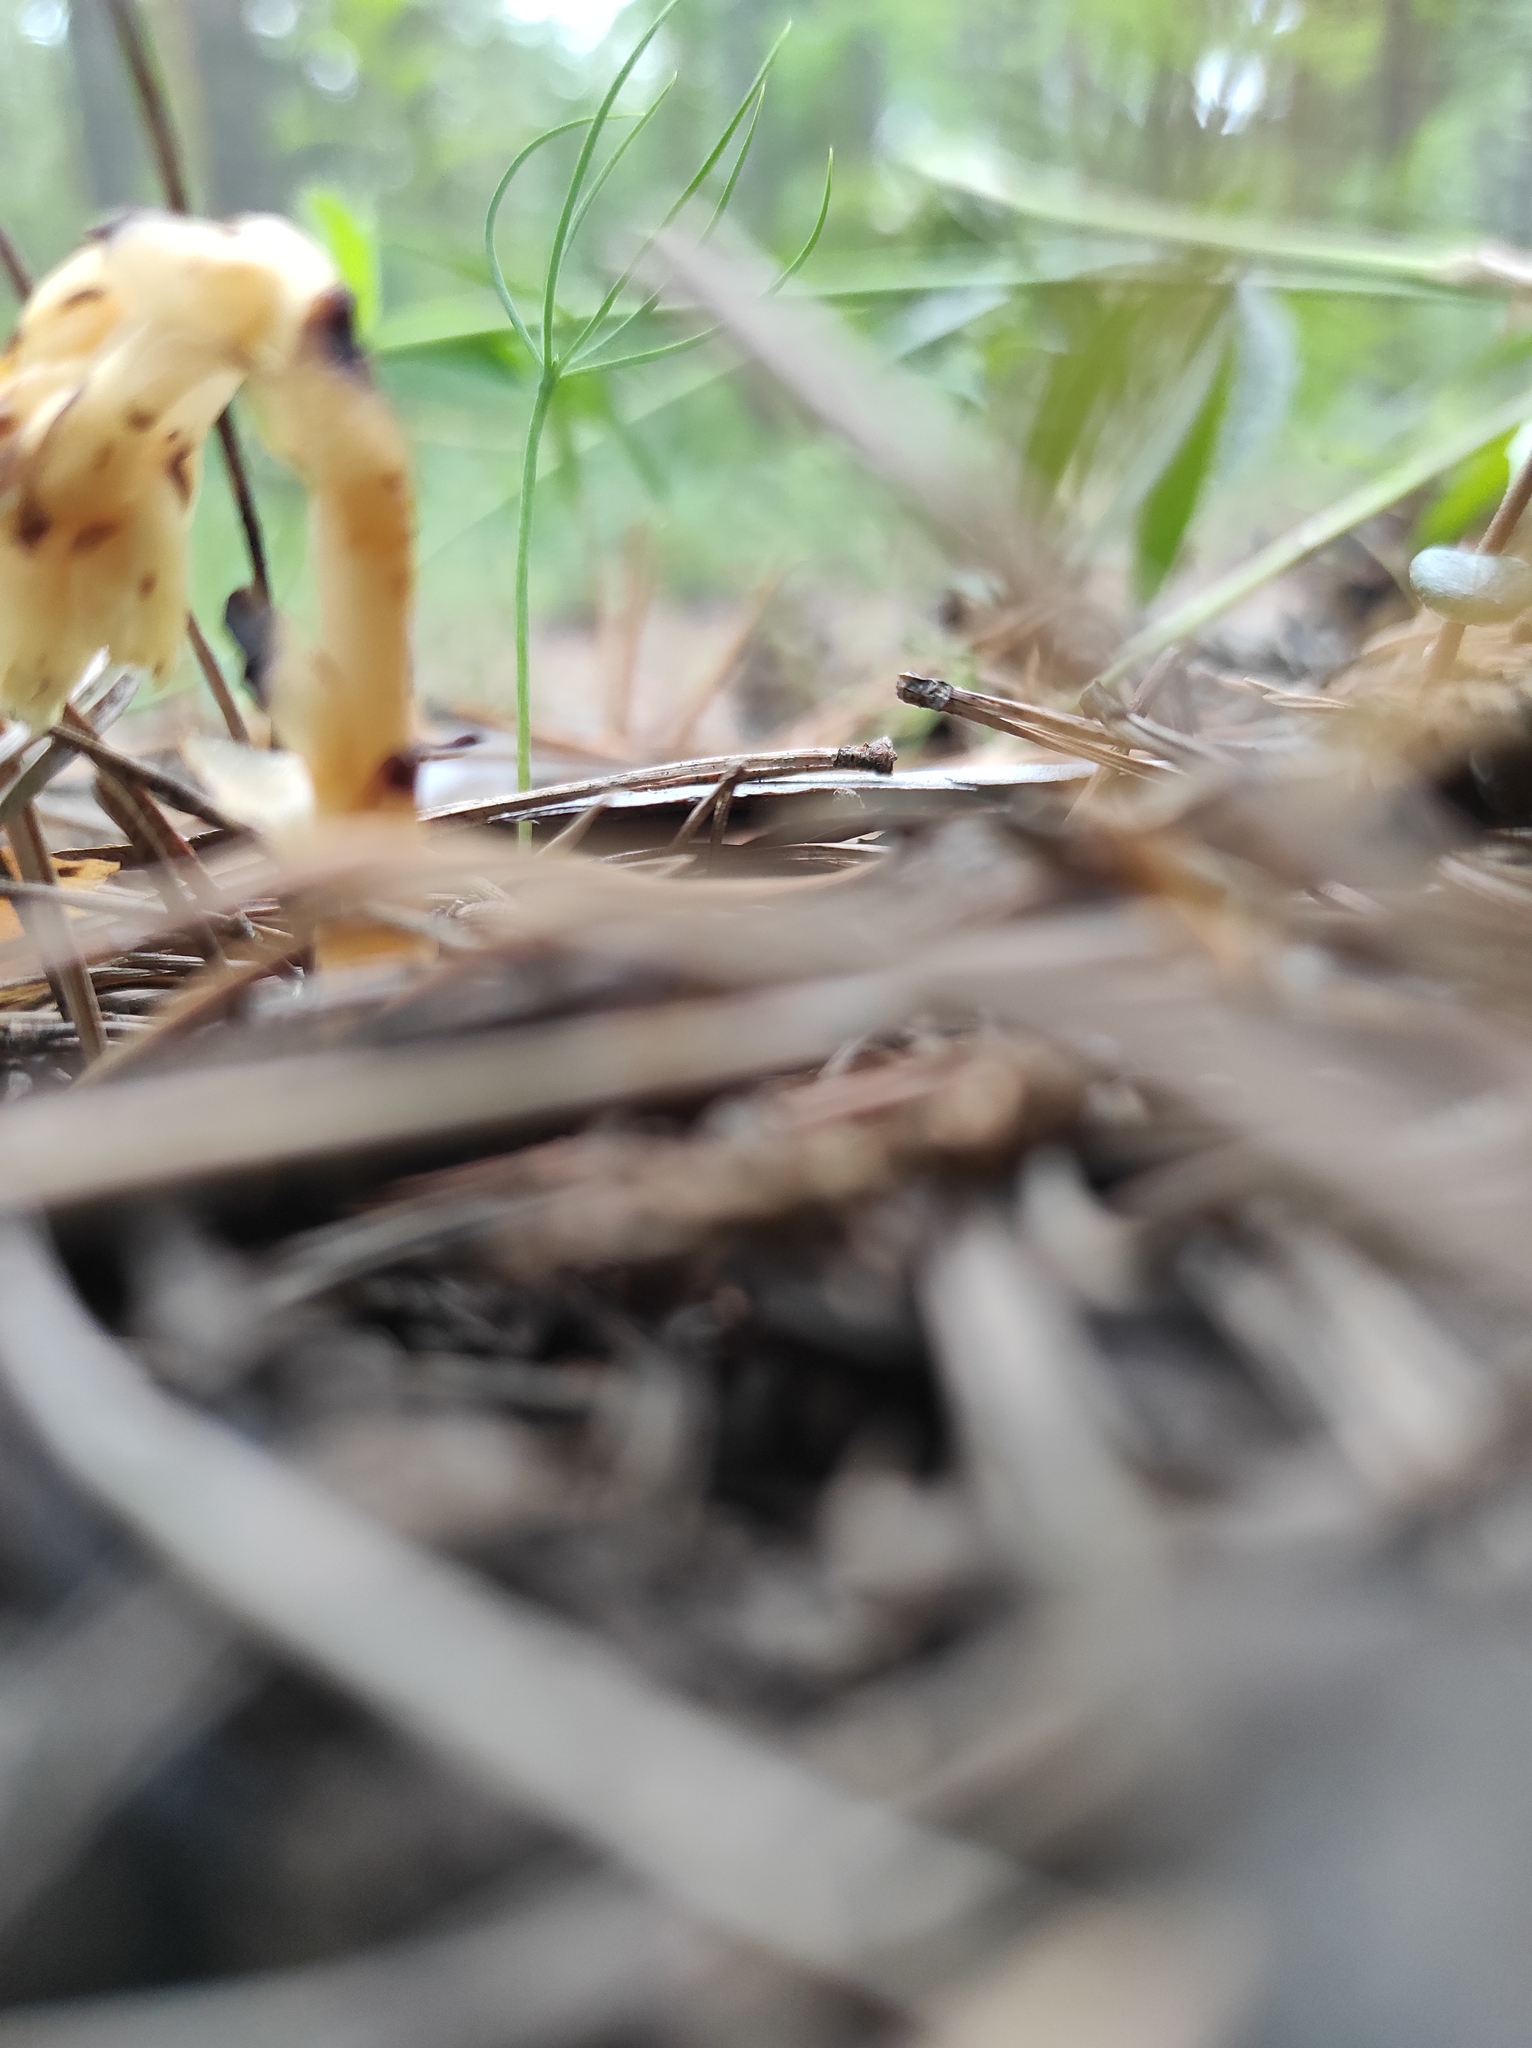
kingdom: Plantae
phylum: Tracheophyta
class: Pinopsida
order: Pinales
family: Pinaceae
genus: Pinus
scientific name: Pinus sylvestris
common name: Scots pine
